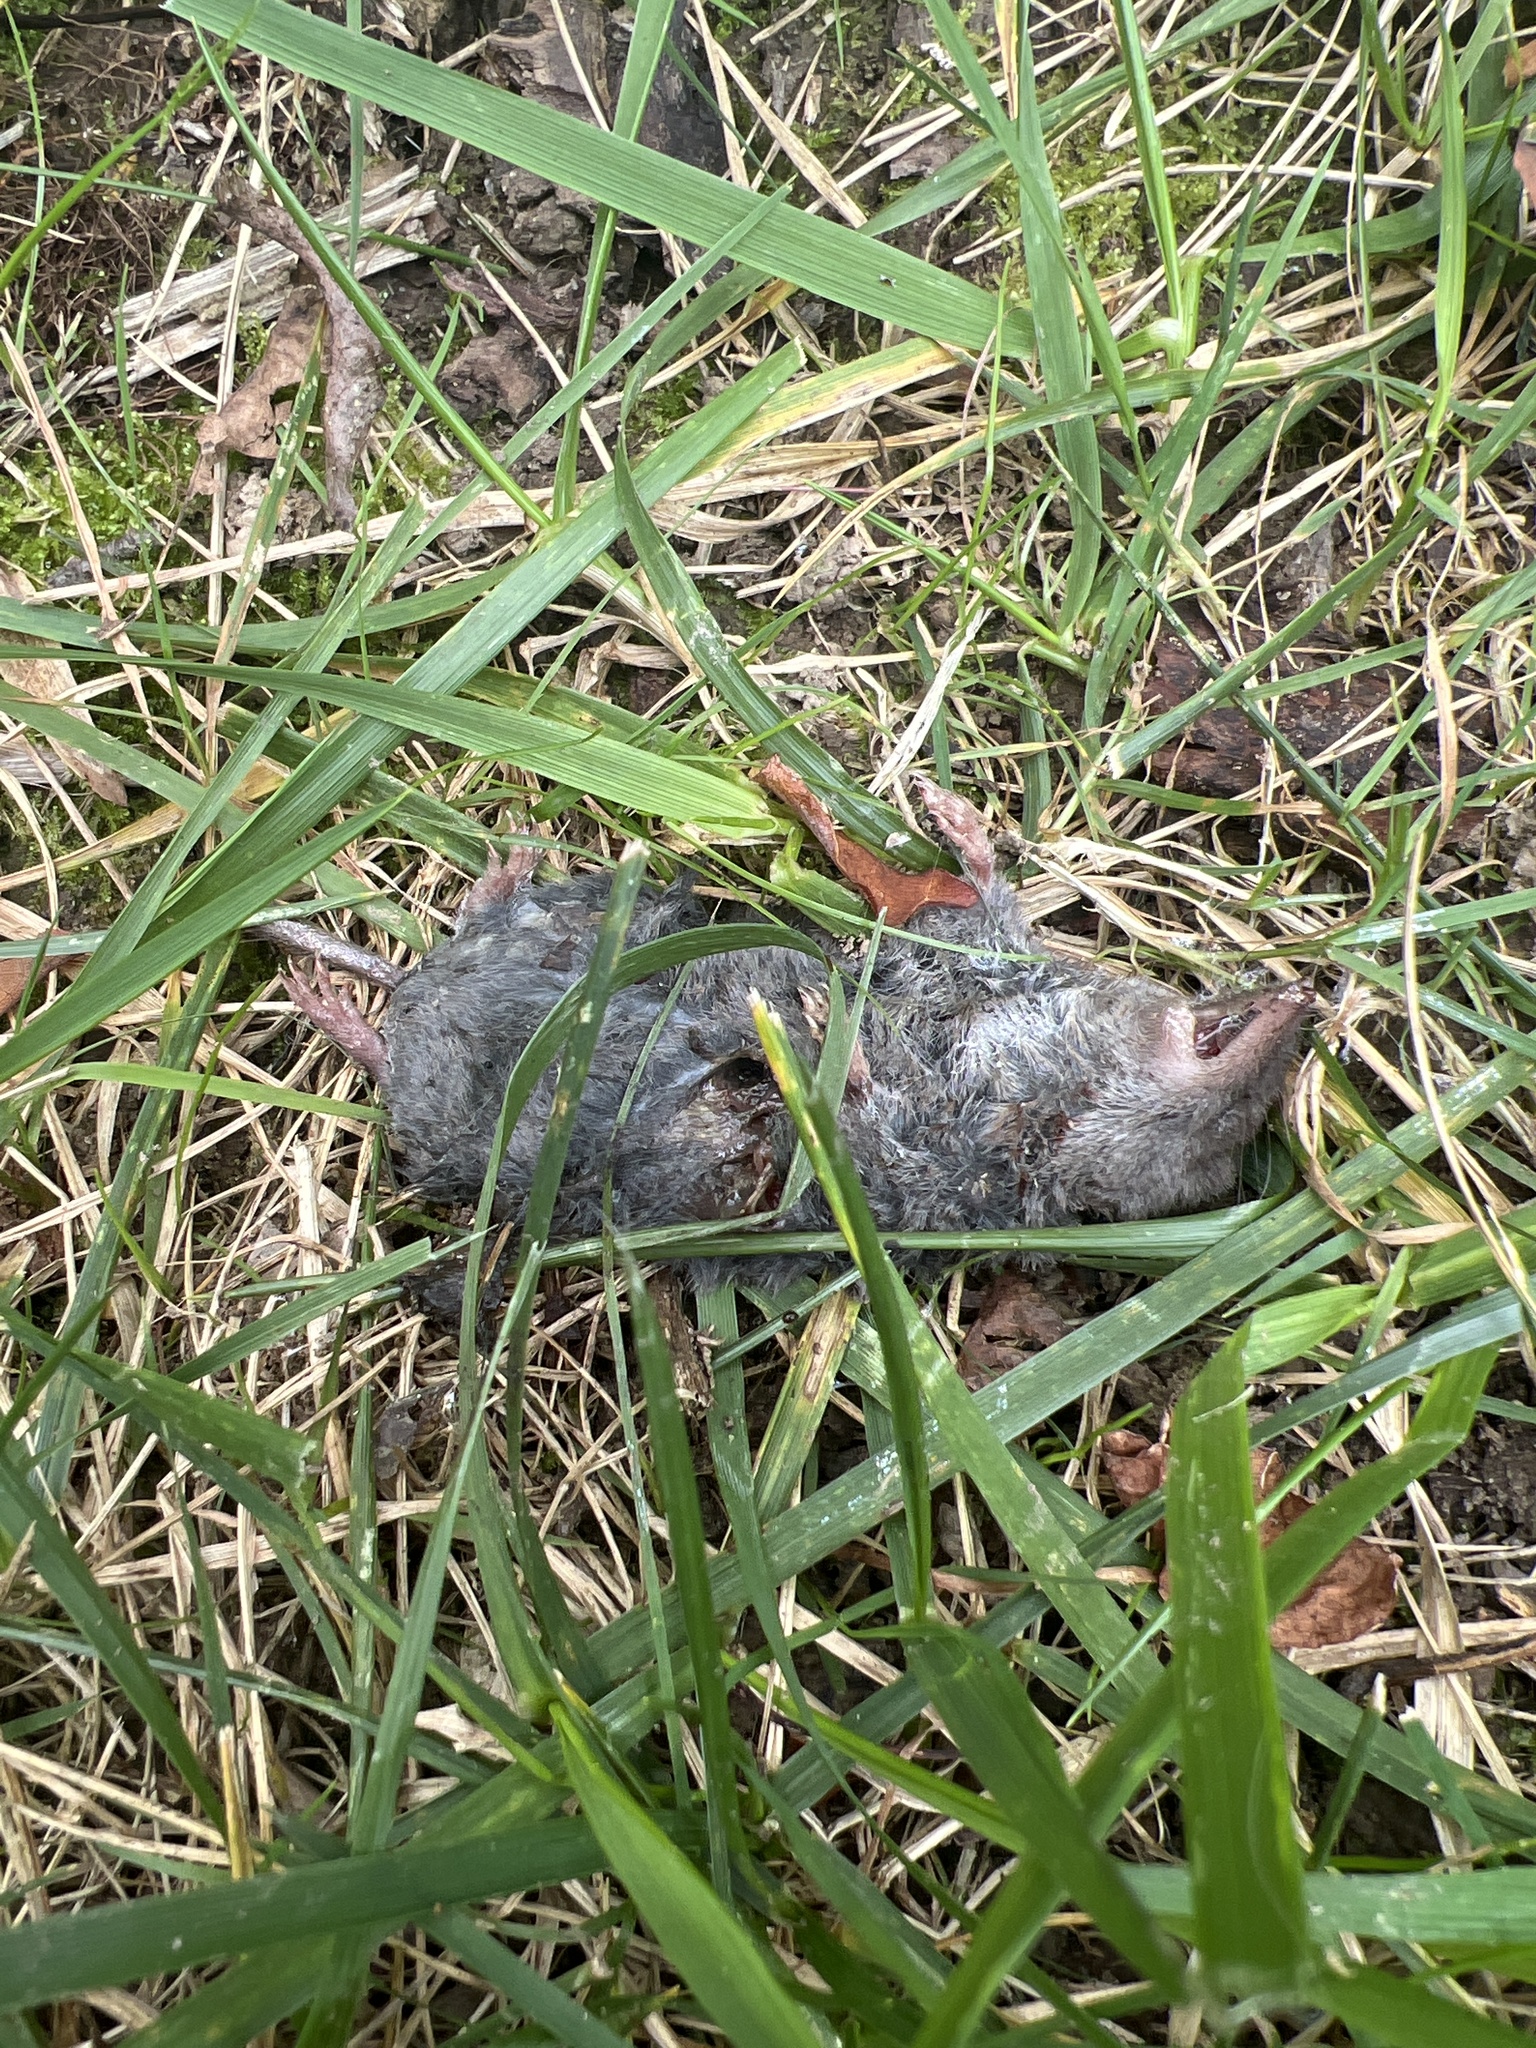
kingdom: Animalia
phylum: Chordata
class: Mammalia
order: Soricomorpha
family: Soricidae
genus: Blarina
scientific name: Blarina brevicauda
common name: Northern short-tailed shrew
